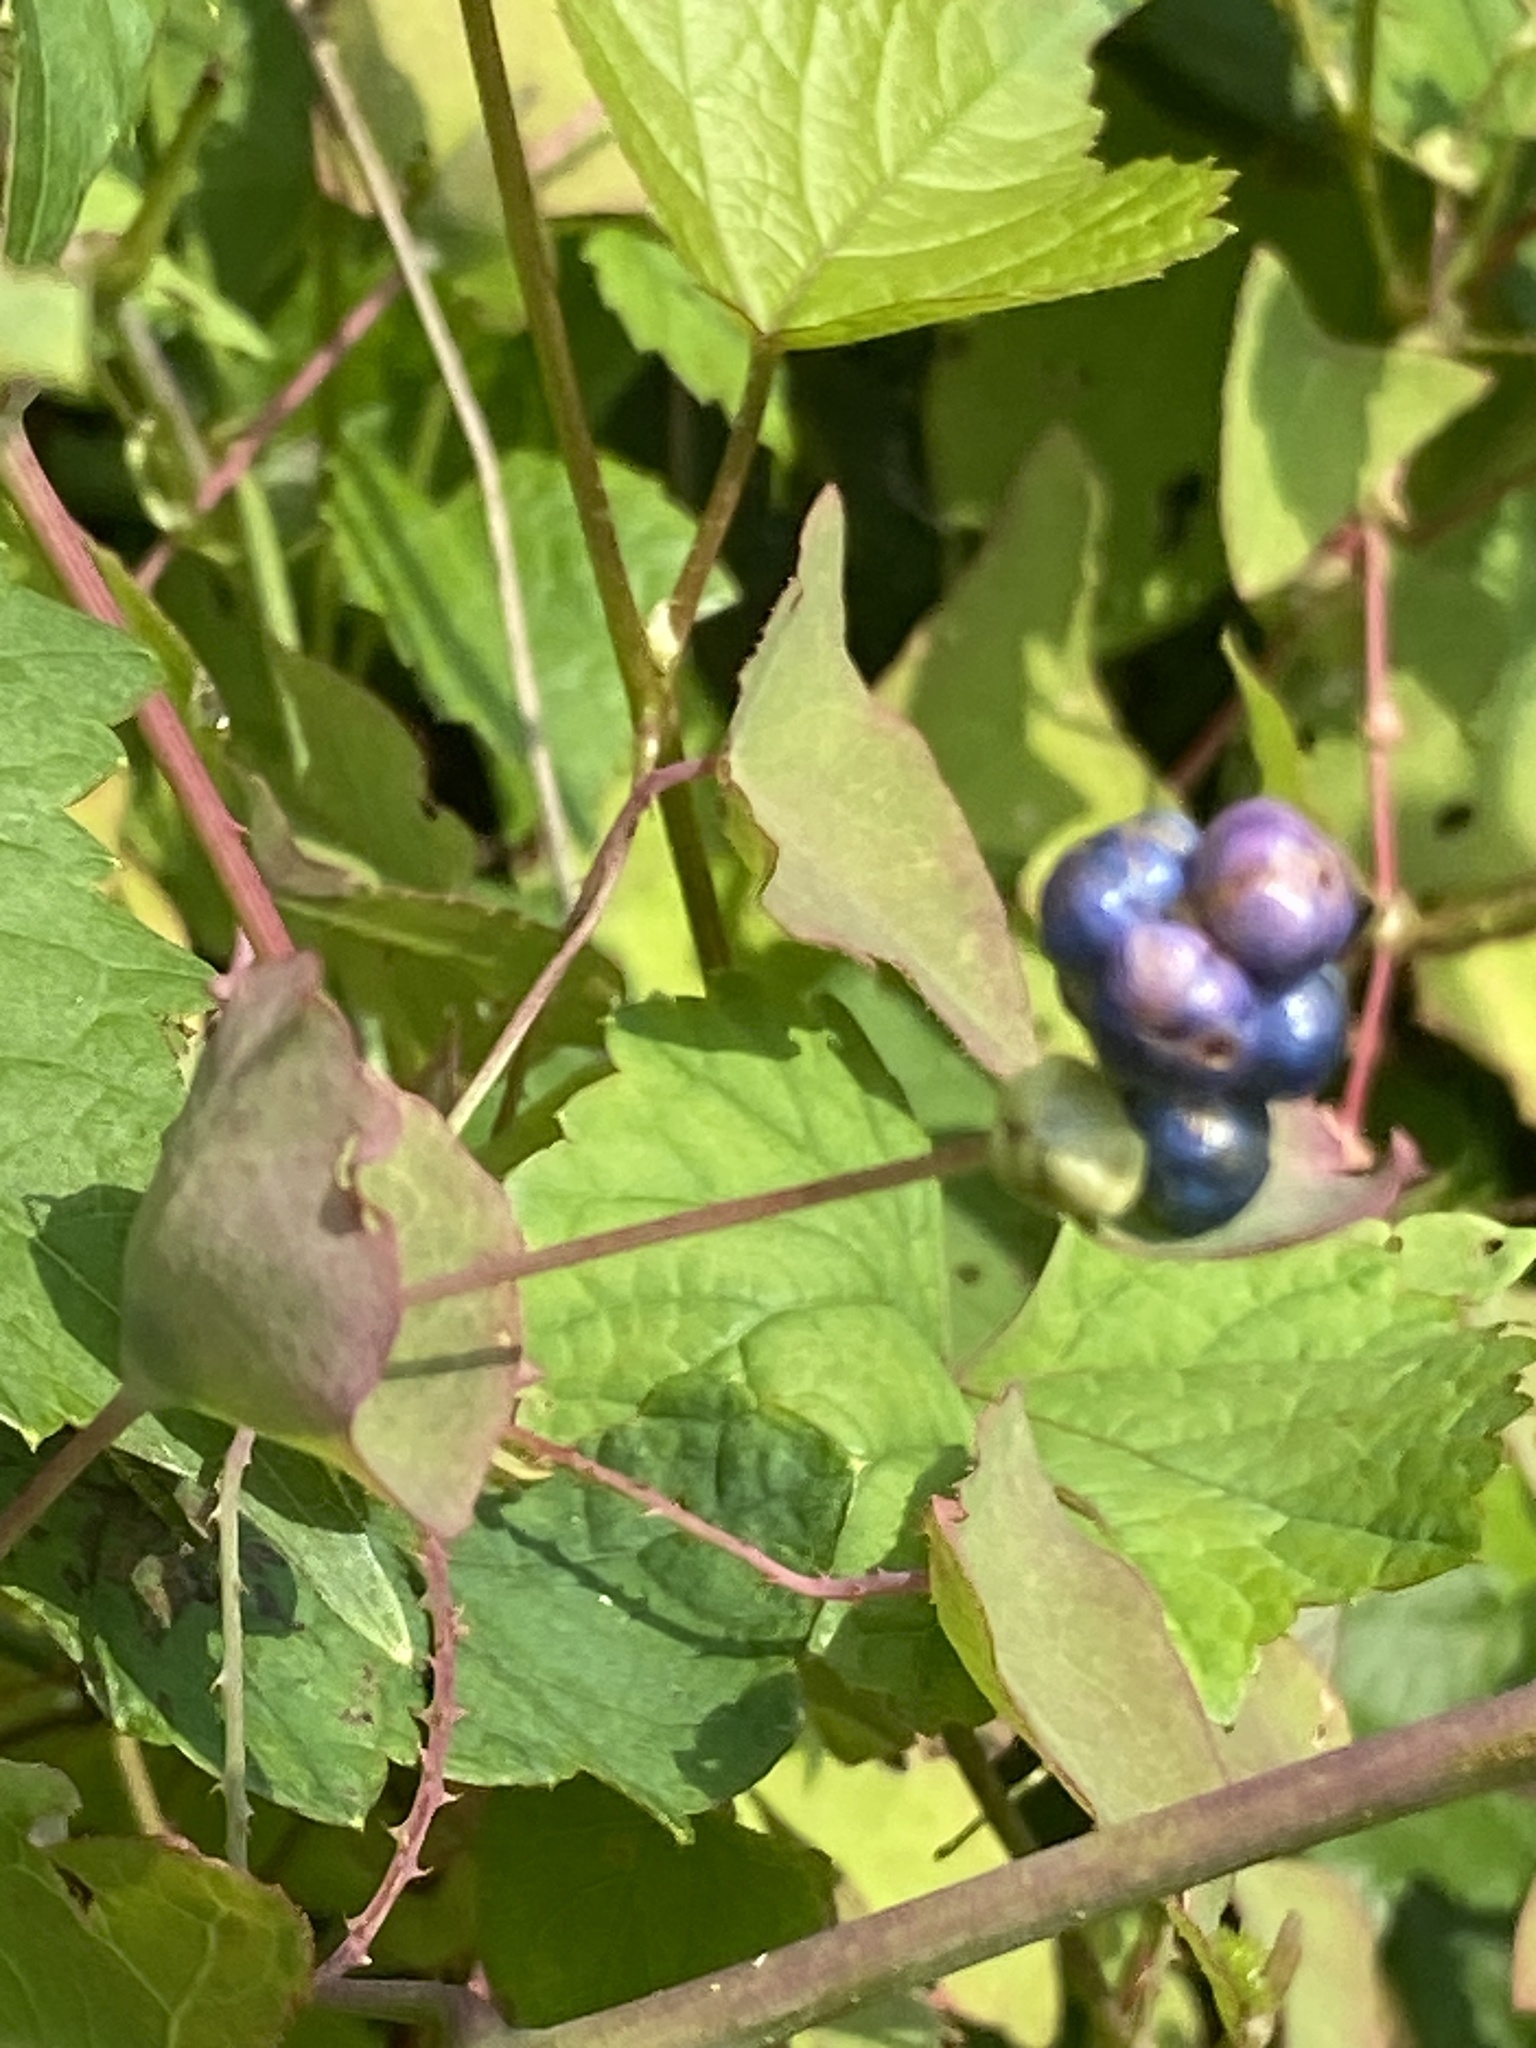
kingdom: Plantae
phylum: Tracheophyta
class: Magnoliopsida
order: Caryophyllales
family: Polygonaceae
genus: Persicaria
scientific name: Persicaria perfoliata
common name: Asiatic tearthumb
